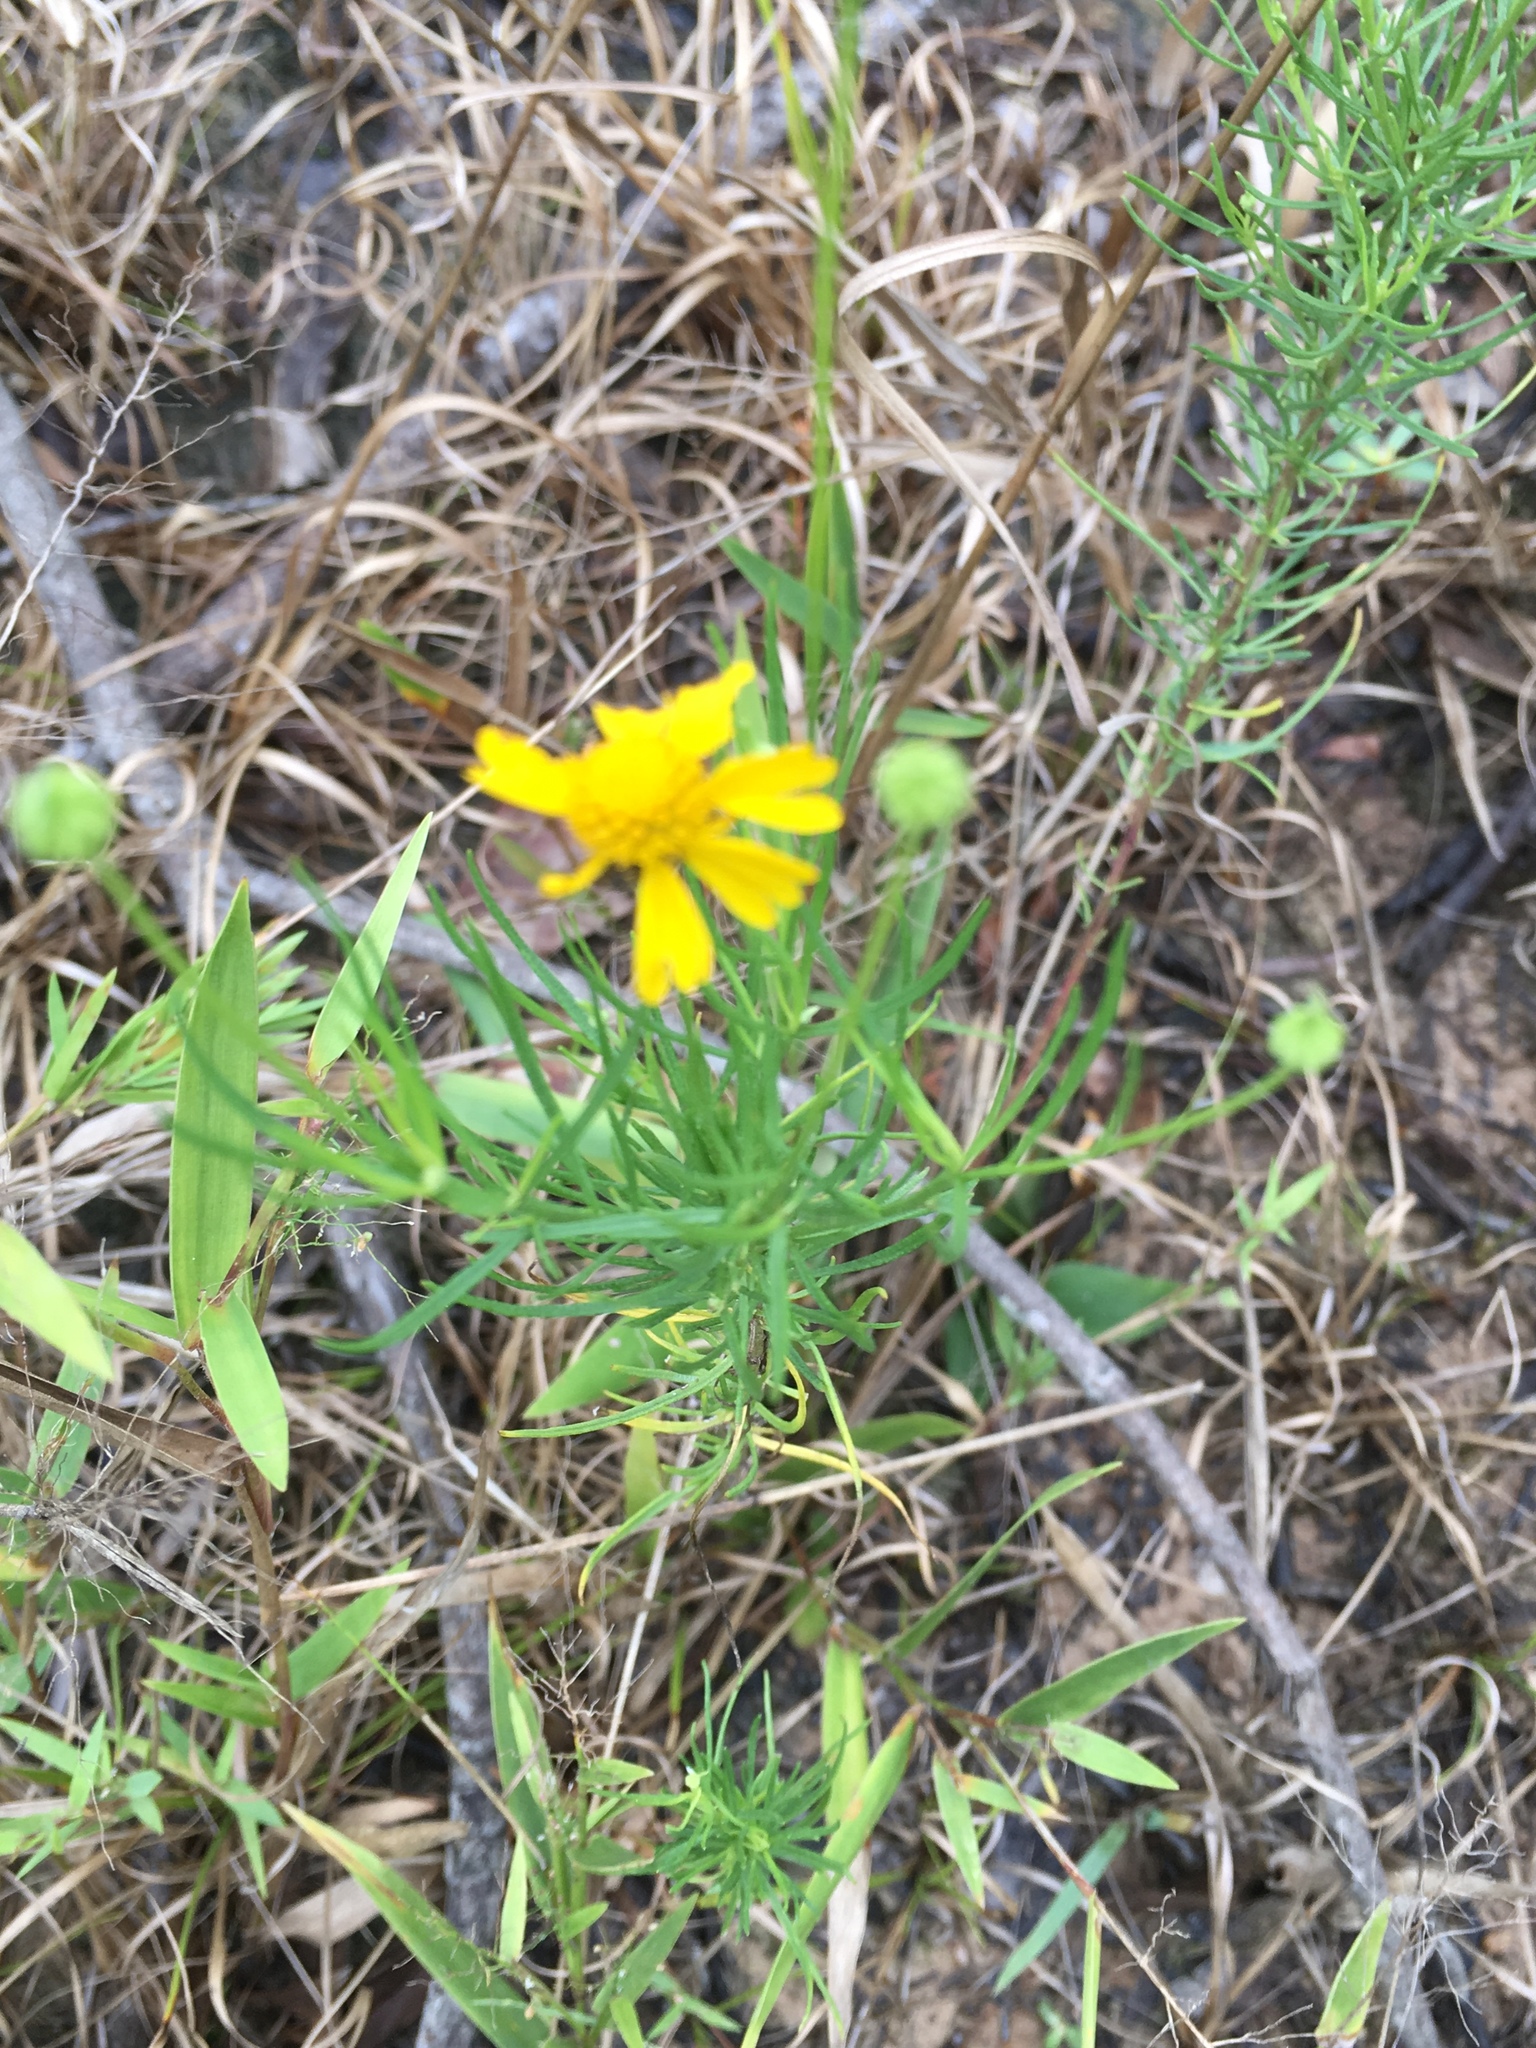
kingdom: Plantae
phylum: Tracheophyta
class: Magnoliopsida
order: Asterales
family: Asteraceae
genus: Helenium
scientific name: Helenium amarum
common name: Bitter sneezeweed
